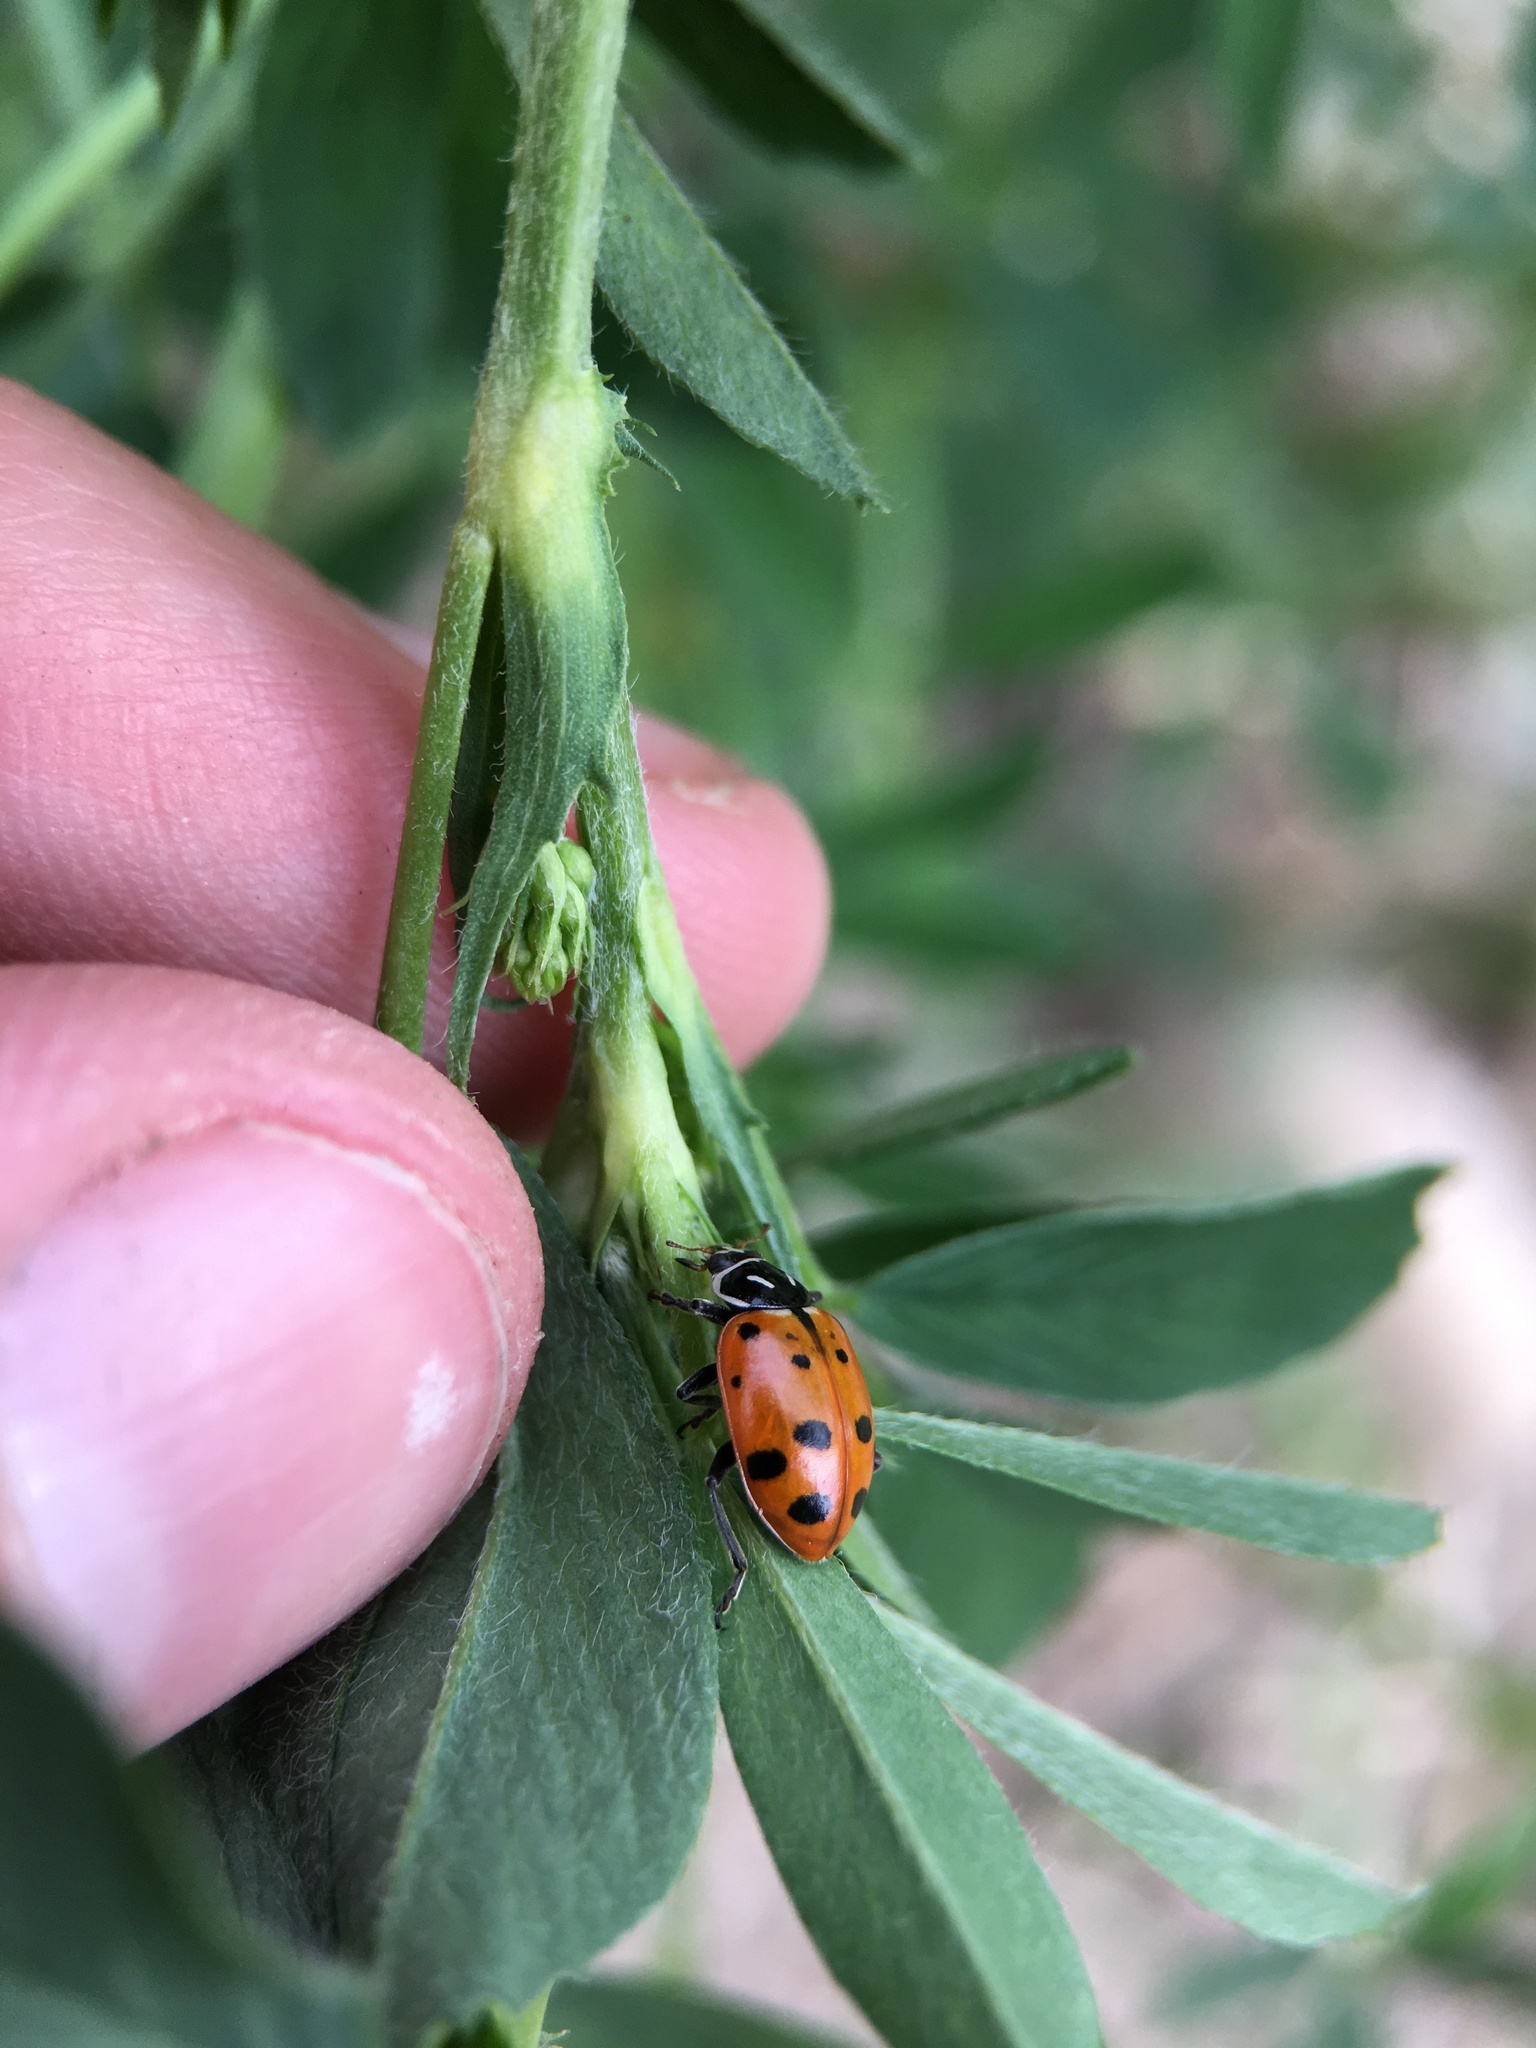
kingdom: Animalia
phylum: Arthropoda
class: Insecta
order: Coleoptera
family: Coccinellidae
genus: Hippodamia
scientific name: Hippodamia convergens
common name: Convergent lady beetle
